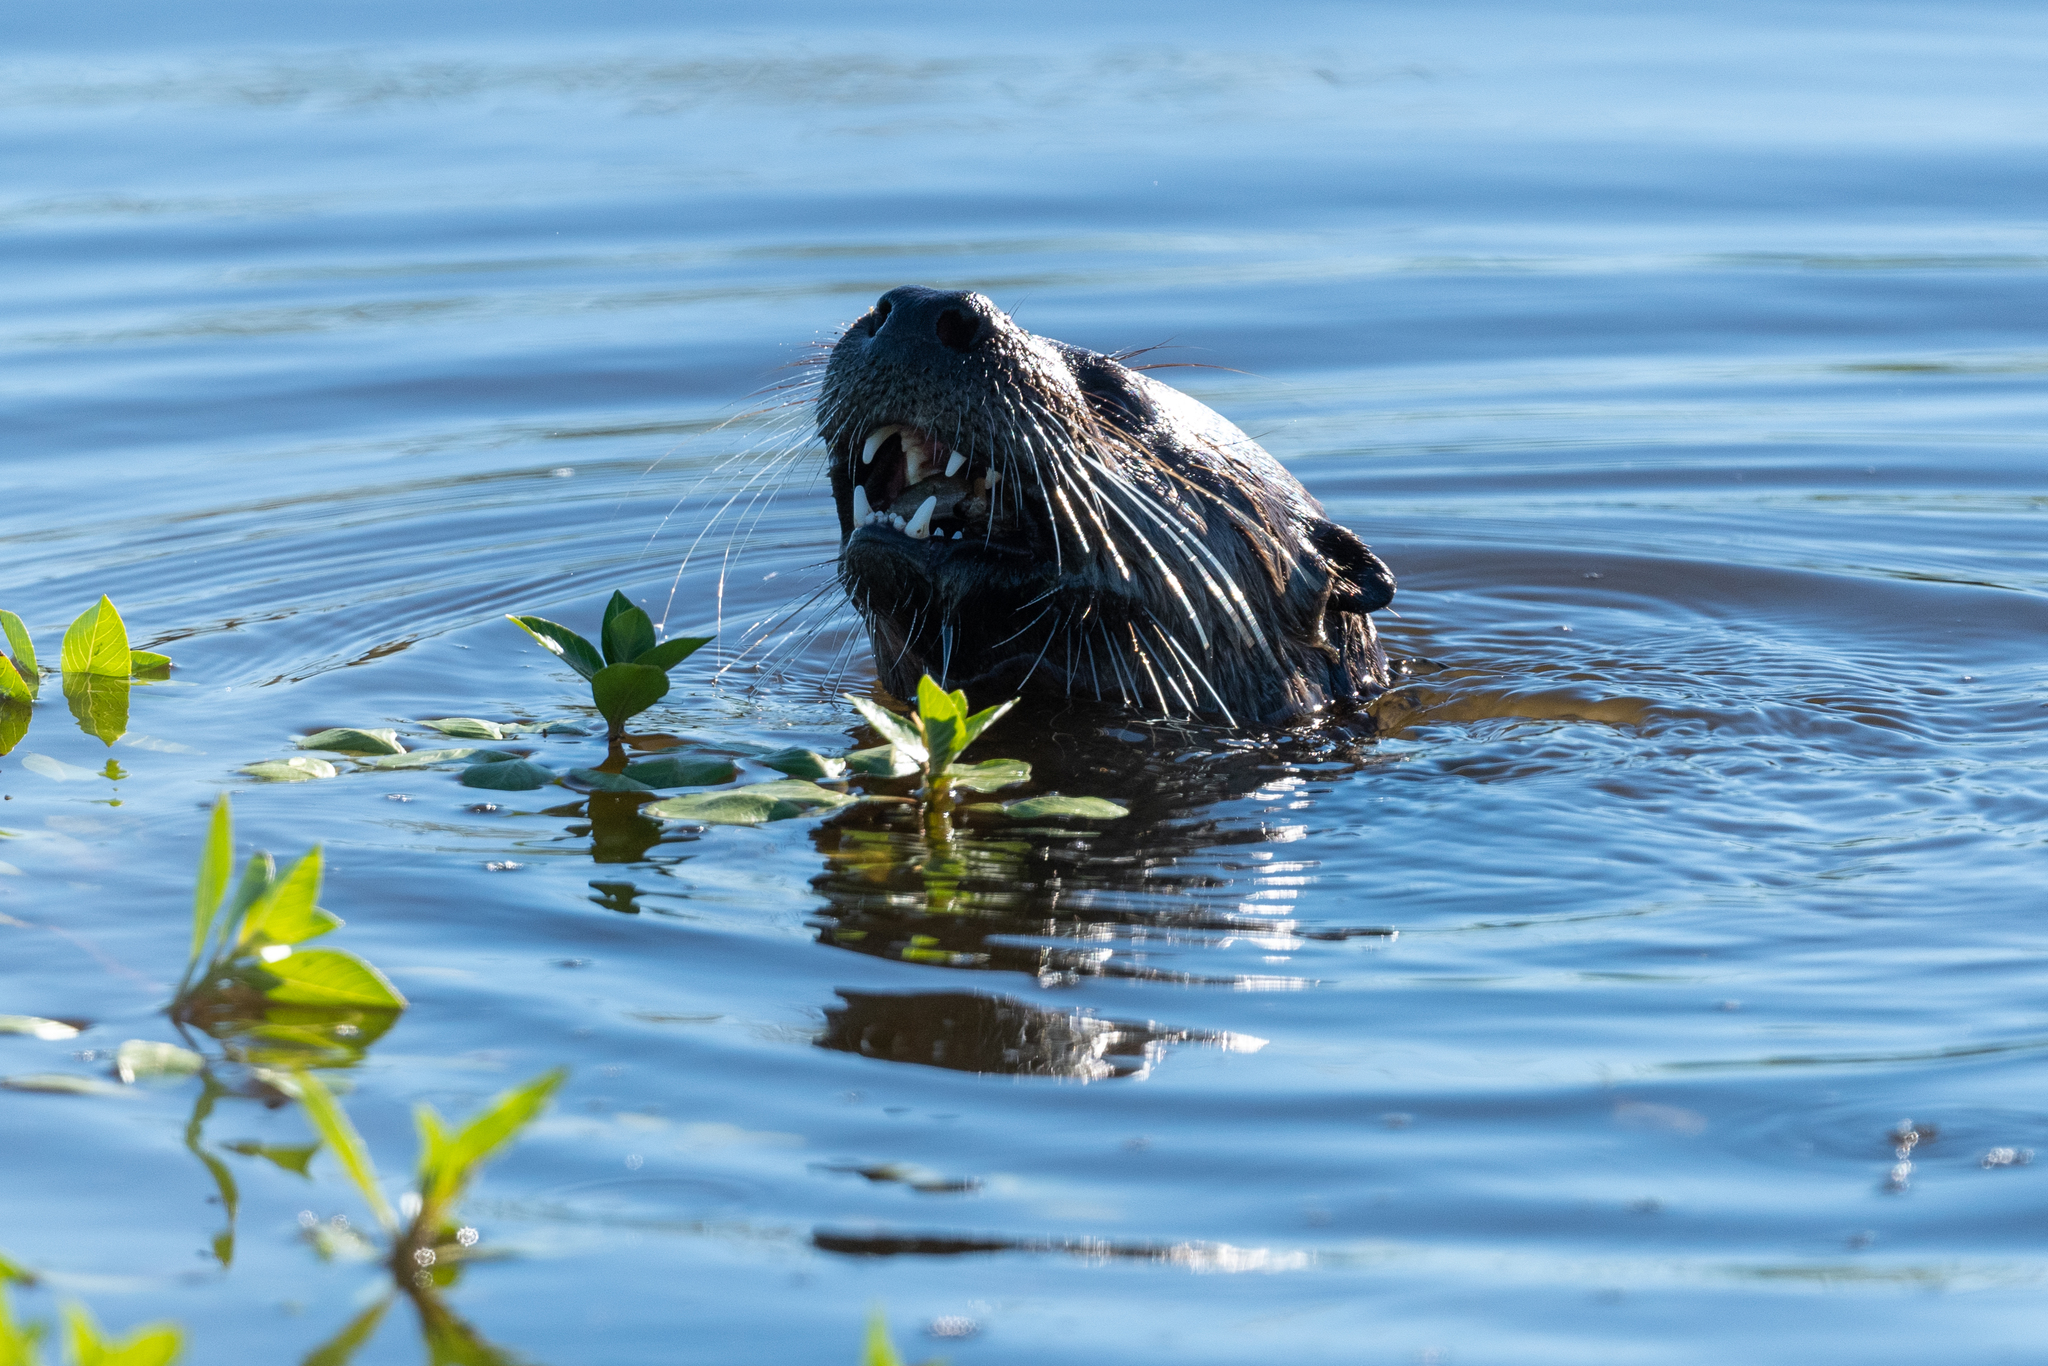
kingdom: Animalia
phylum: Chordata
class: Mammalia
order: Carnivora
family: Mustelidae
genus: Lontra
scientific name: Lontra canadensis
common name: North american river otter
